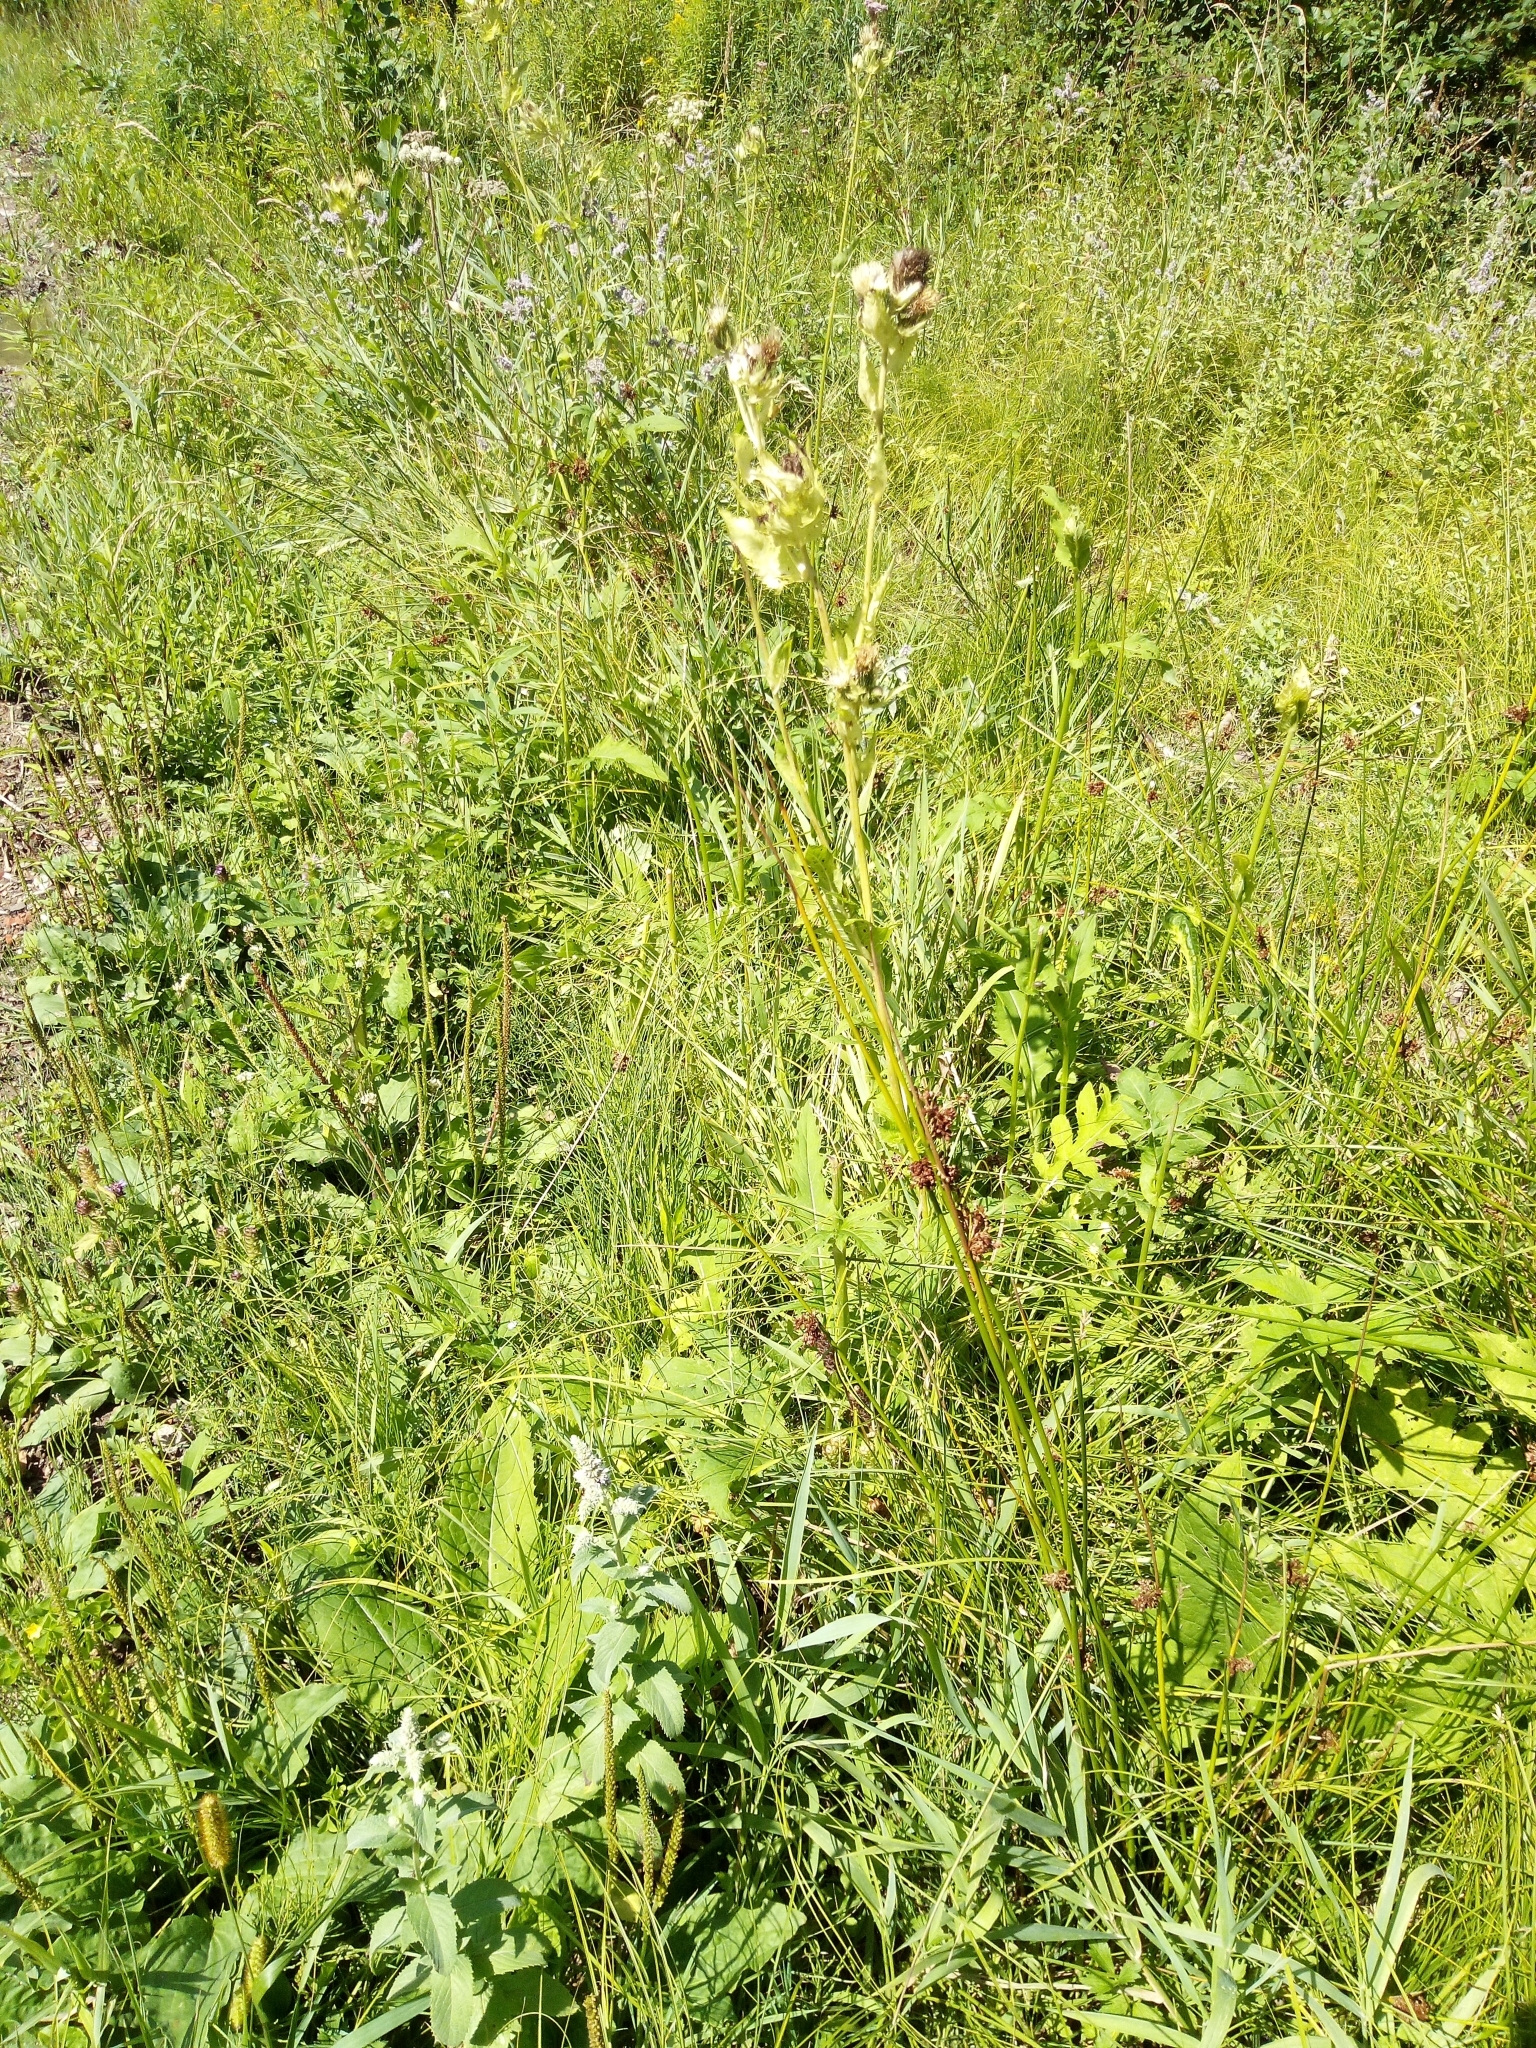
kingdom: Plantae
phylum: Tracheophyta
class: Magnoliopsida
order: Asterales
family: Asteraceae
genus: Cirsium
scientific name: Cirsium oleraceum
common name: Cabbage thistle
